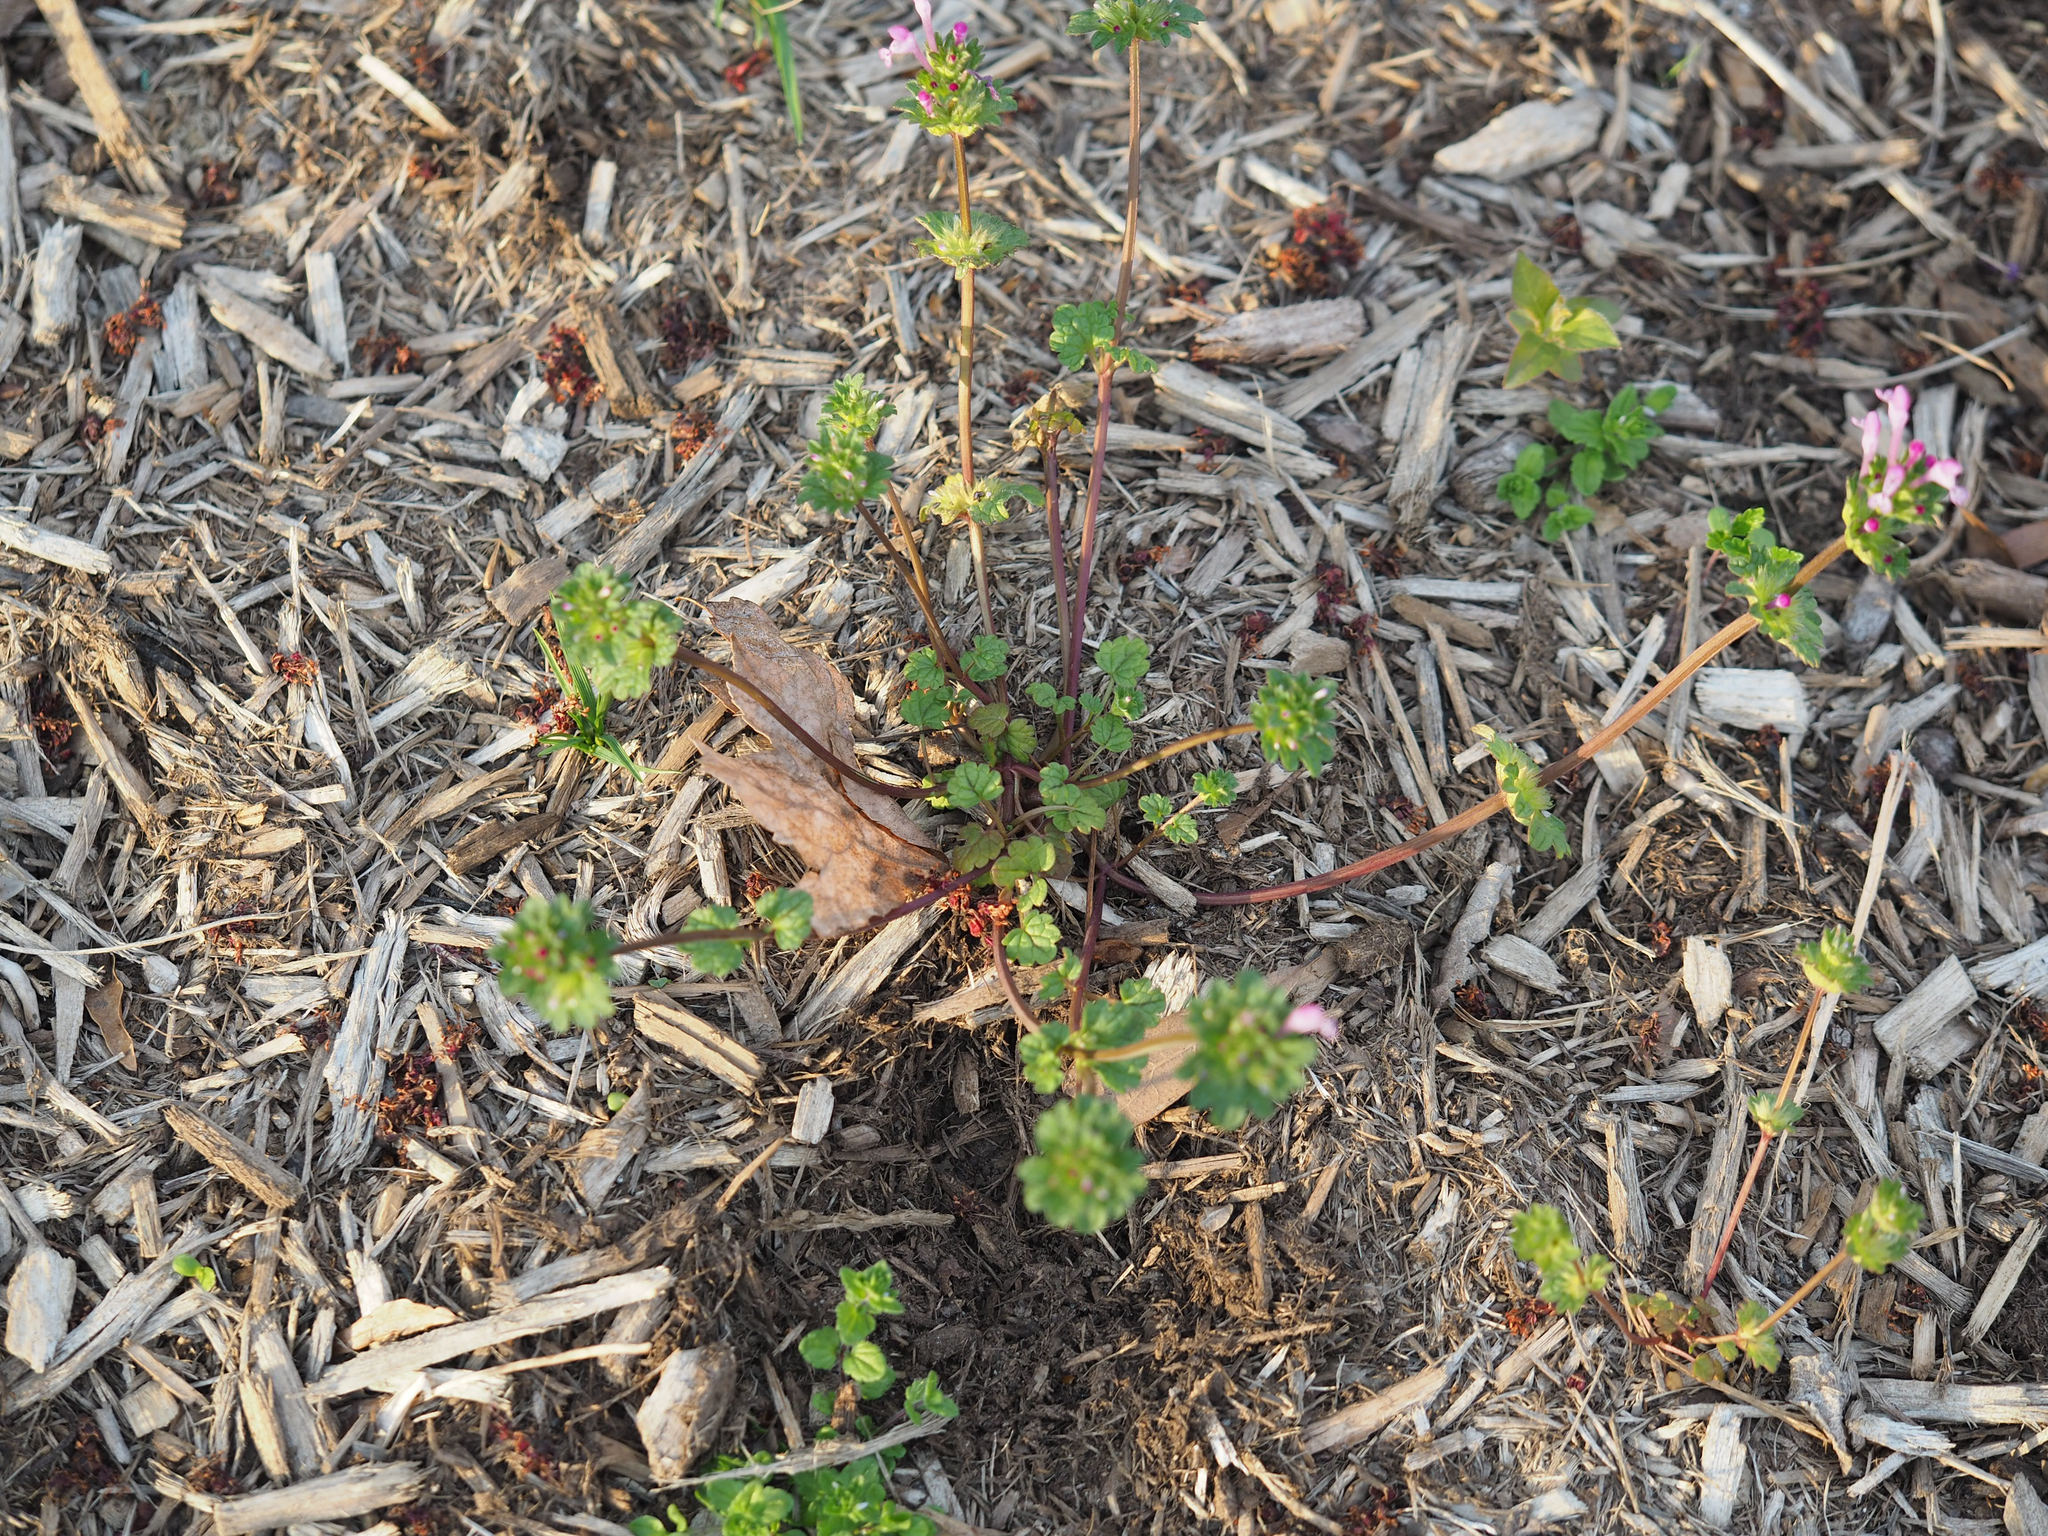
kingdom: Plantae
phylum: Tracheophyta
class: Magnoliopsida
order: Lamiales
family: Lamiaceae
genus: Lamium
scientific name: Lamium amplexicaule
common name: Henbit dead-nettle
